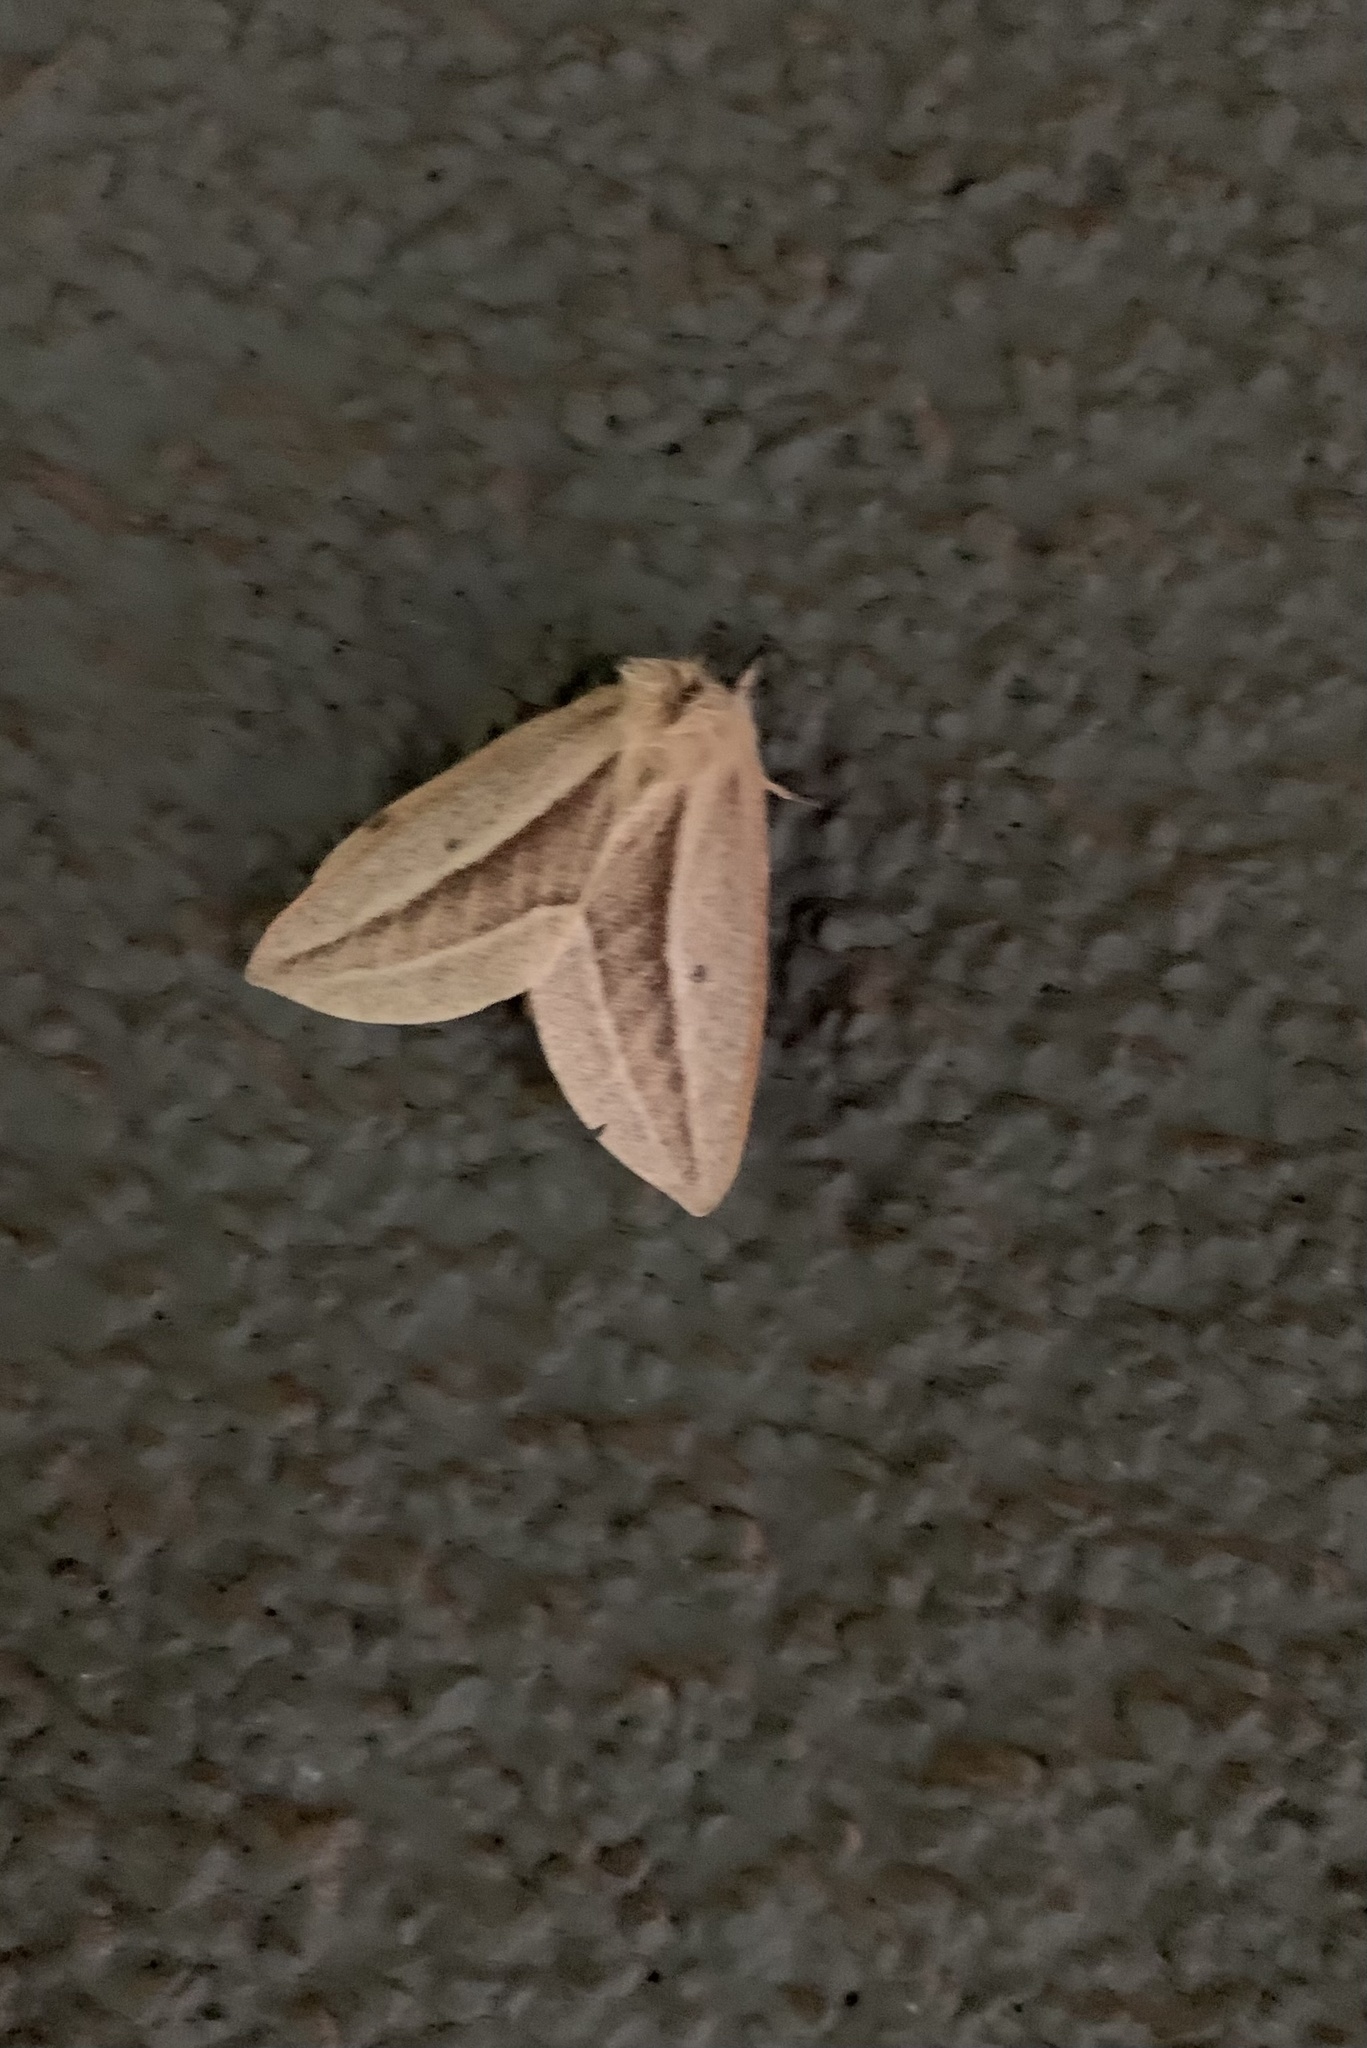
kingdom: Animalia
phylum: Arthropoda
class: Insecta
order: Lepidoptera
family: Saturniidae
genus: Cinommata
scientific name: Cinommata bistrigata
